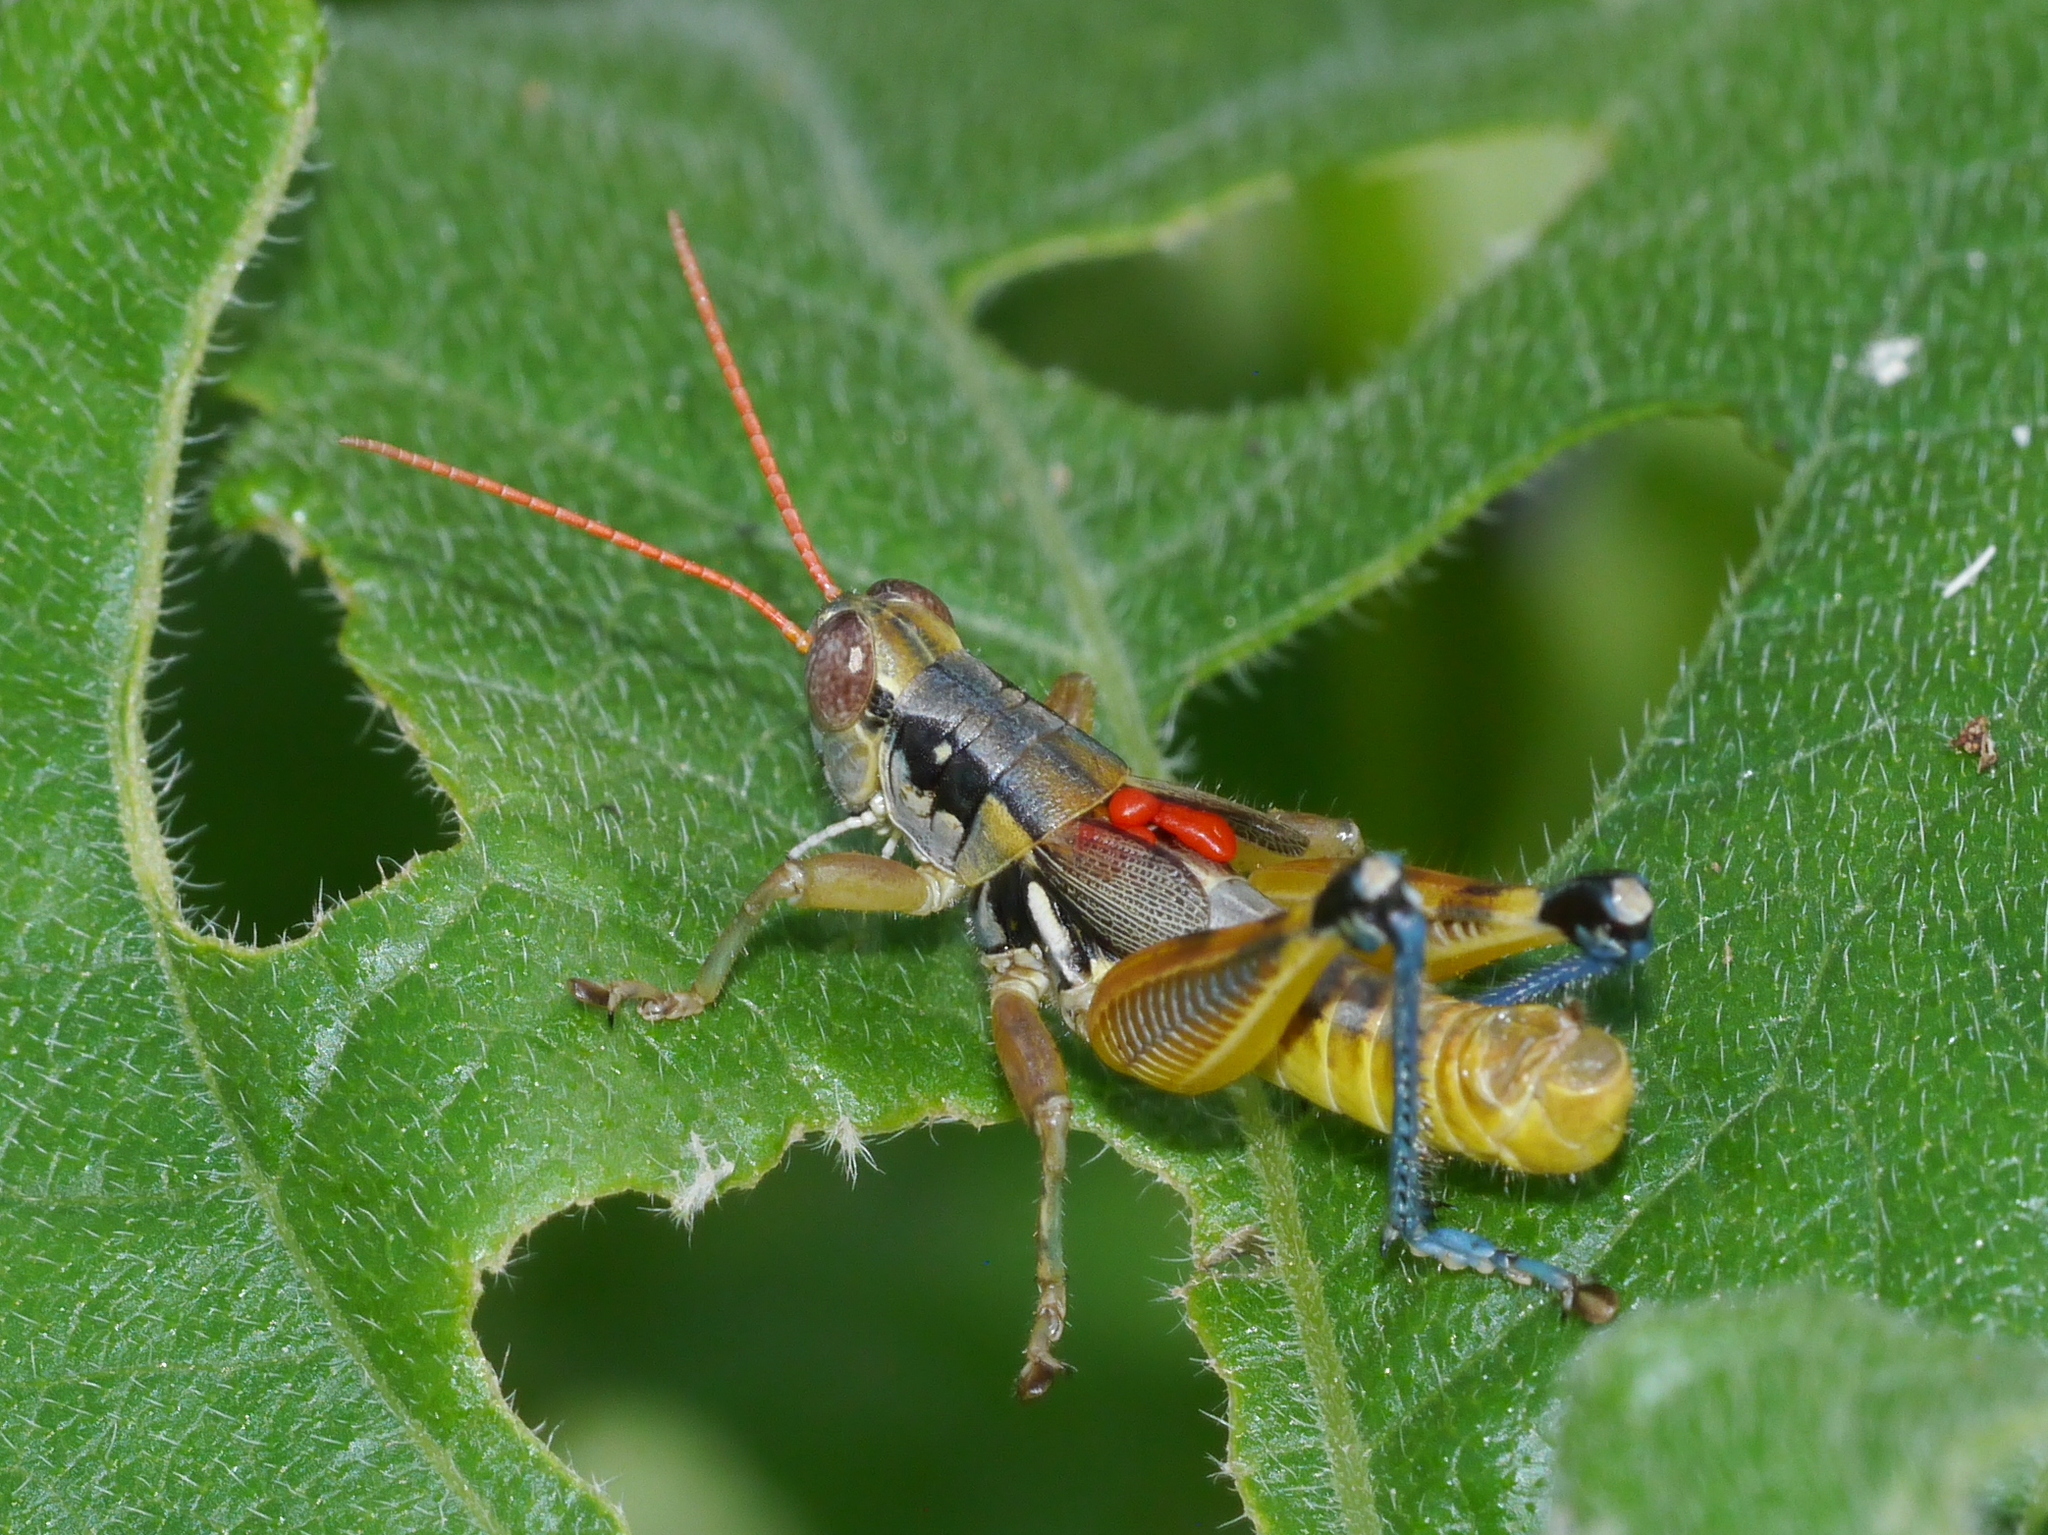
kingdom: Animalia
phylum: Arthropoda
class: Insecta
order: Orthoptera
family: Acrididae
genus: Melanoplus
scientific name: Melanoplus aridus
